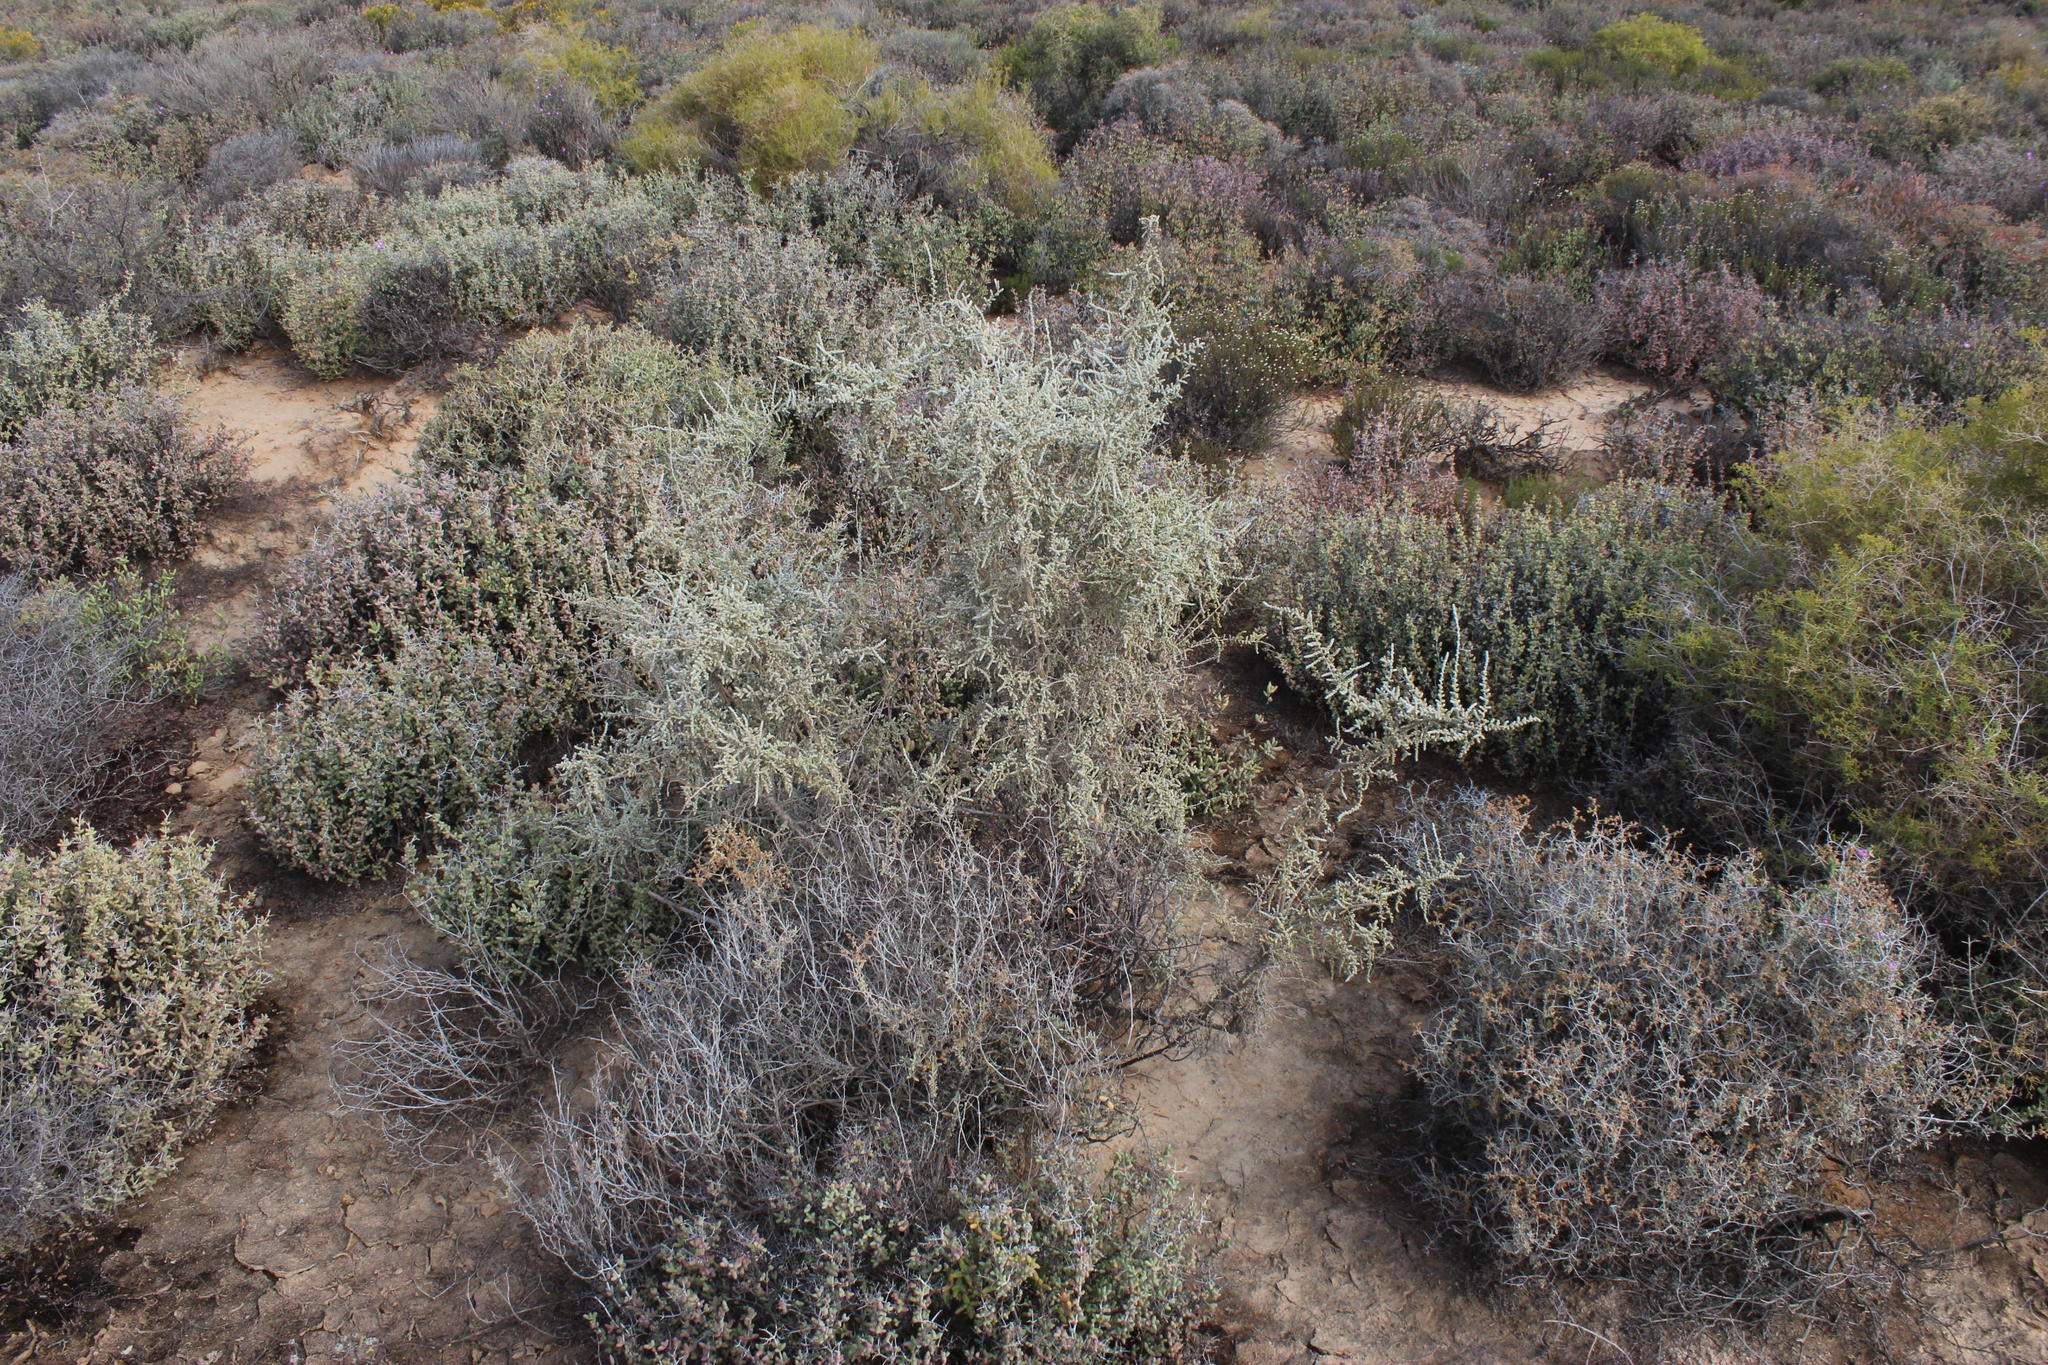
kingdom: Plantae
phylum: Tracheophyta
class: Magnoliopsida
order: Caryophyllales
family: Amaranthaceae
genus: Caroxylon
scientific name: Caroxylon aphyllum
